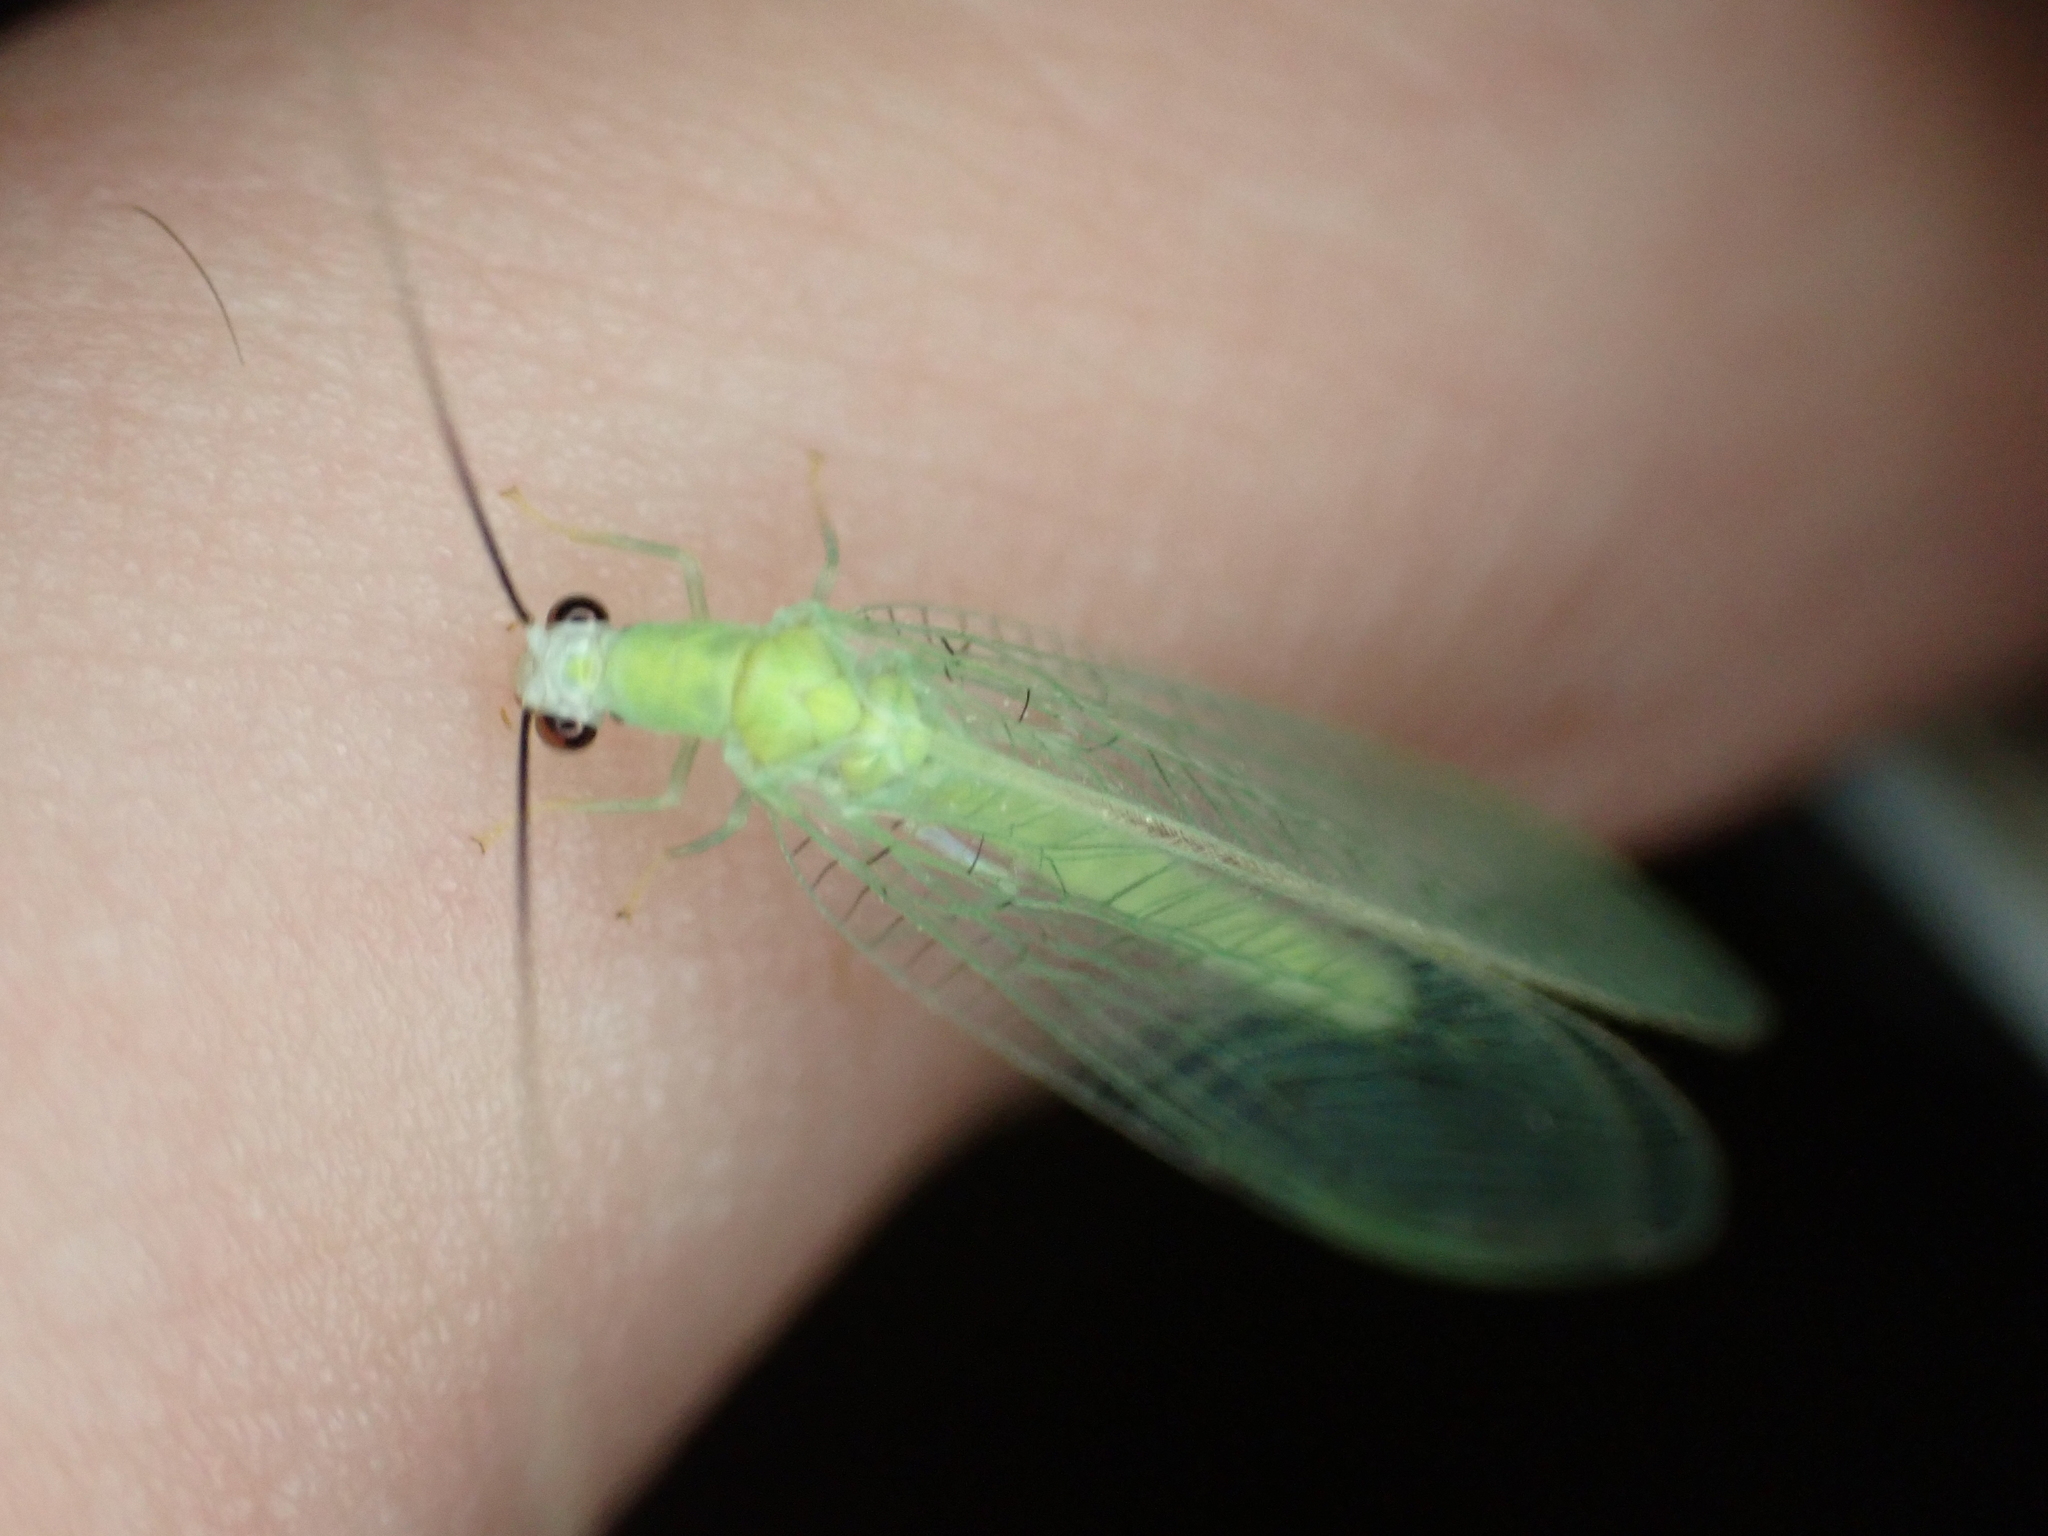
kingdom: Animalia
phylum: Arthropoda
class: Insecta
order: Neuroptera
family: Chrysopidae
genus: Chrysopa
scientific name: Chrysopa nigricornis
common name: Black-horned green lacewing
